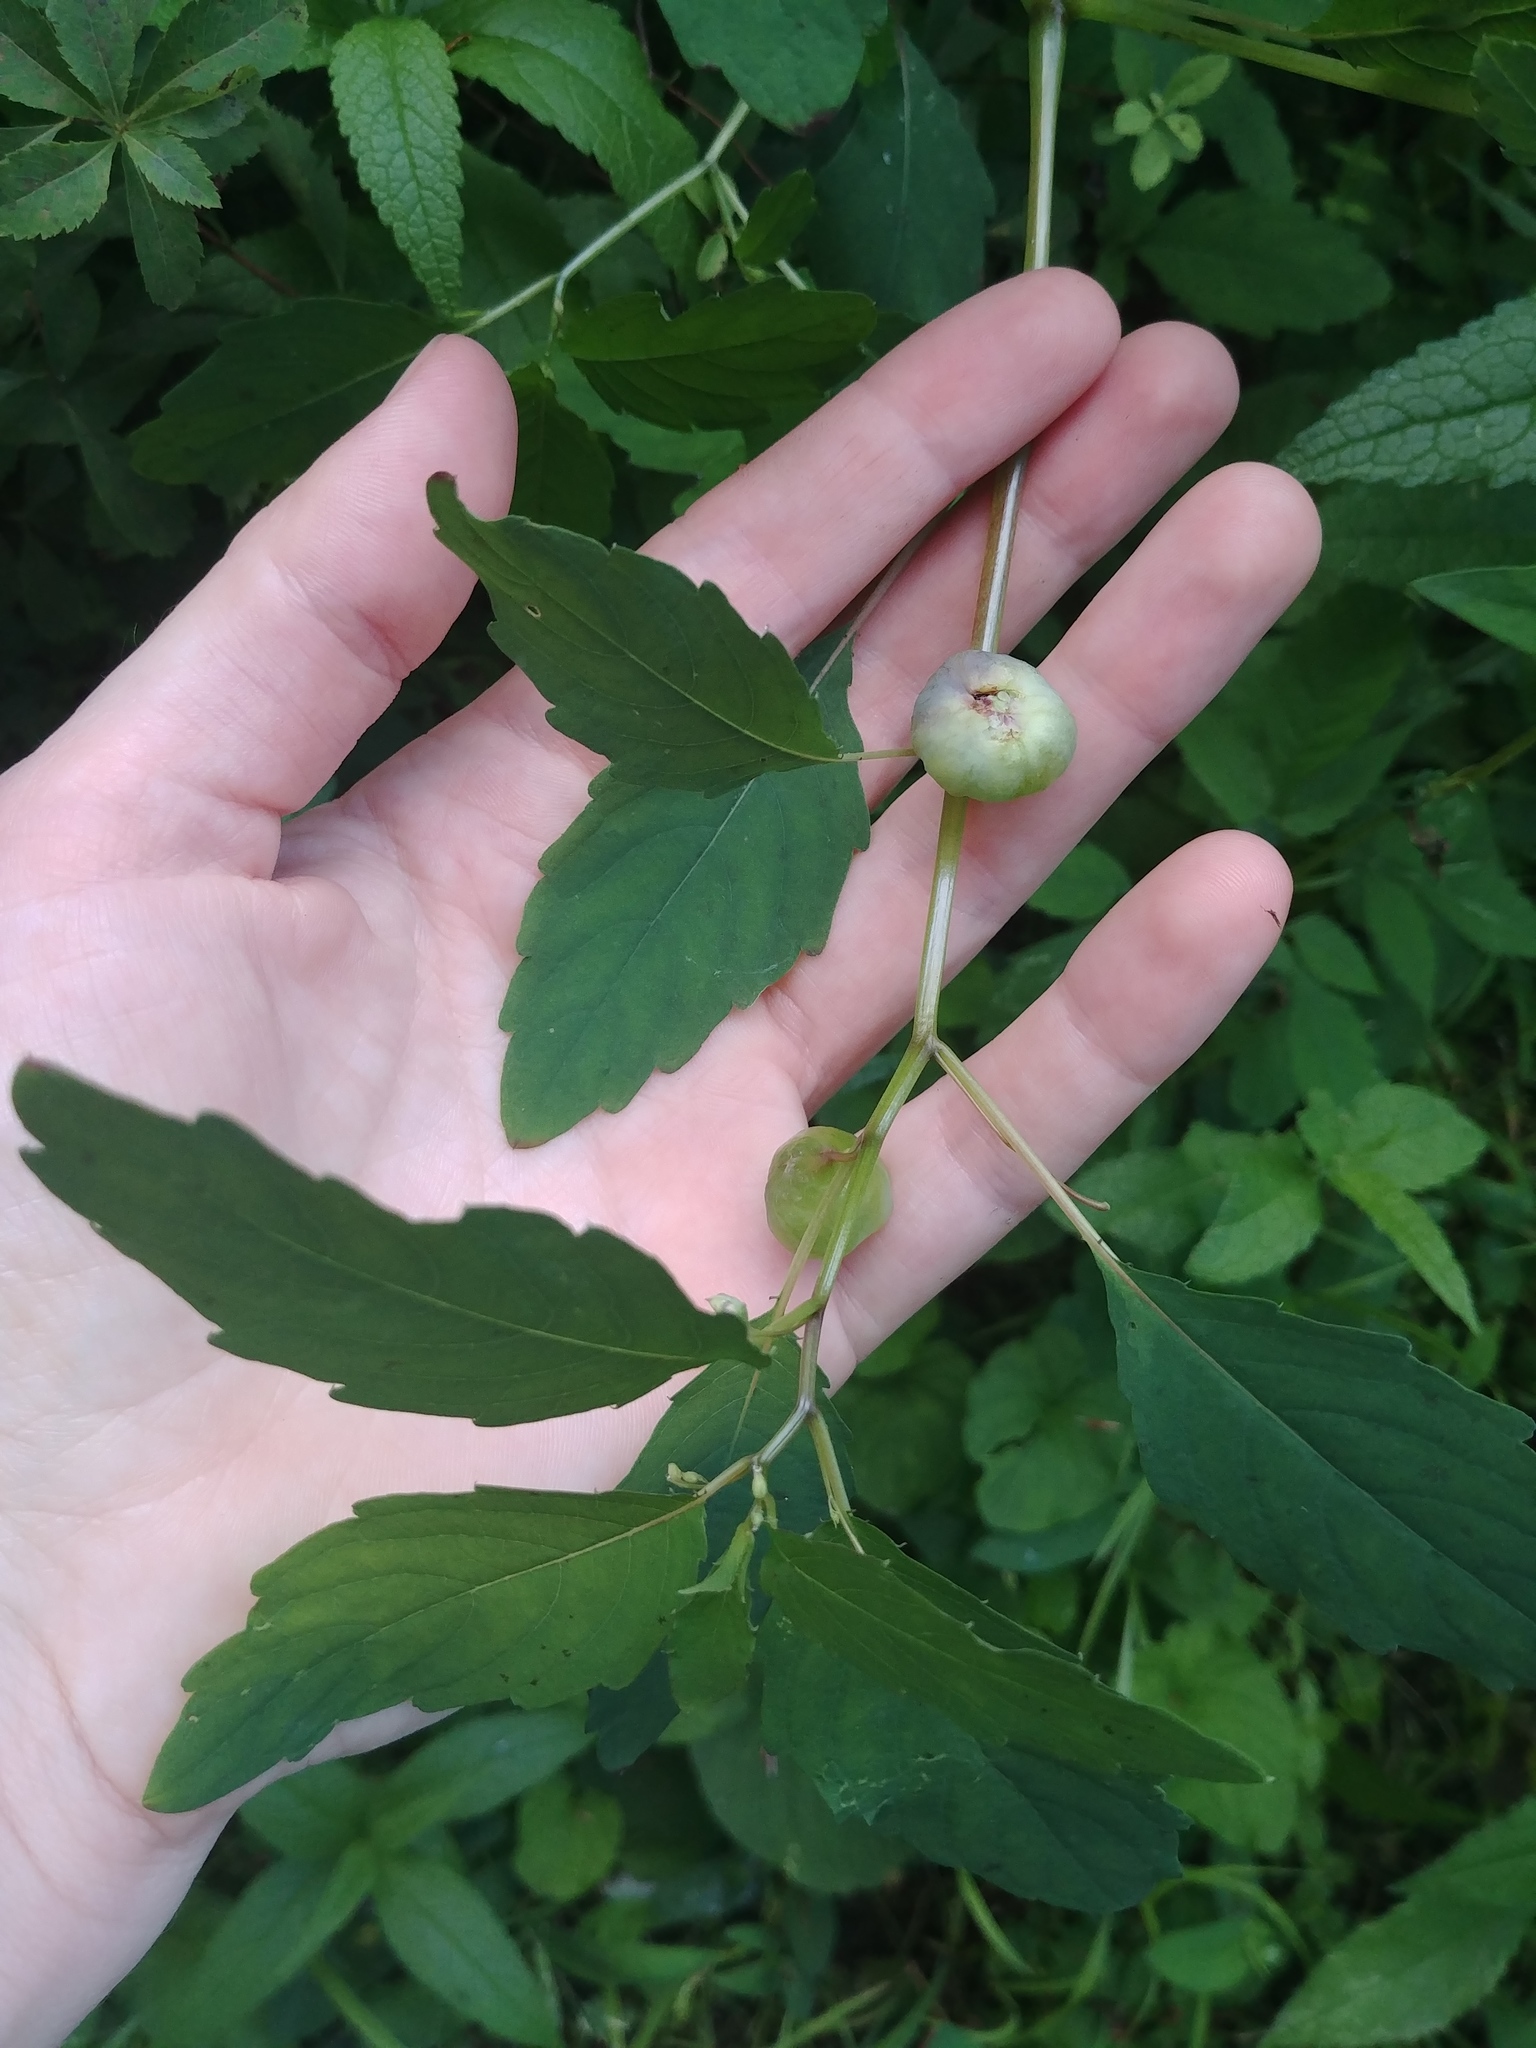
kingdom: Animalia
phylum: Arthropoda
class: Insecta
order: Diptera
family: Cecidomyiidae
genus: Schizomyia
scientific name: Schizomyia impatientis
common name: Jewelweed gall midge
